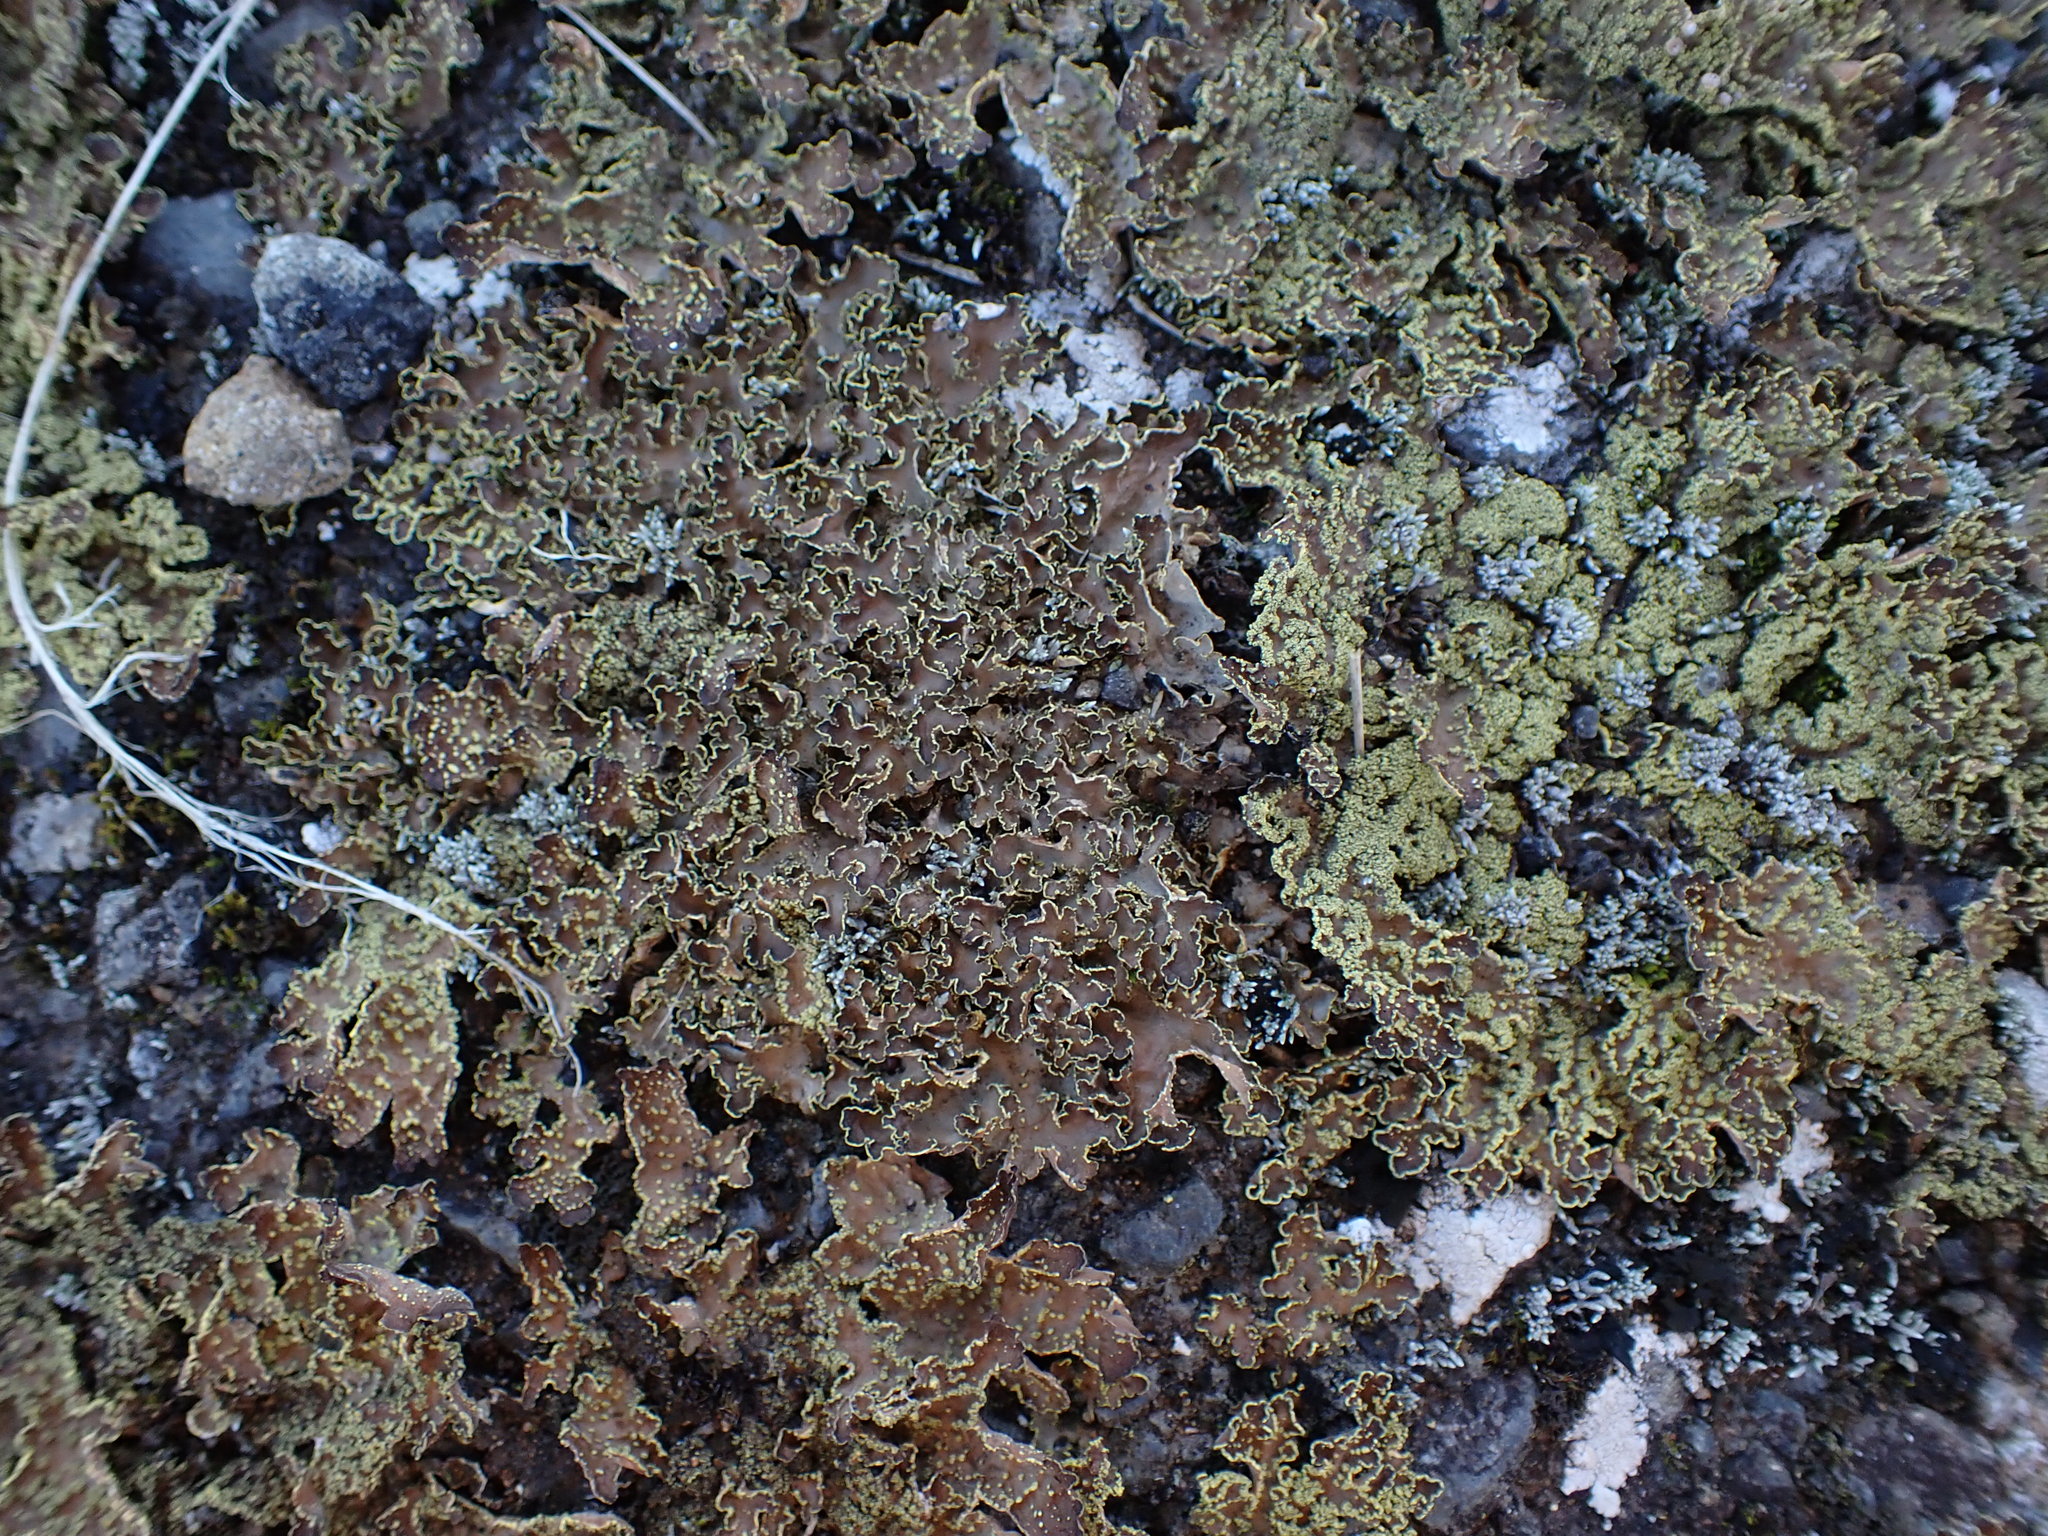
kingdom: Fungi
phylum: Ascomycota
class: Lecanoromycetes
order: Peltigerales
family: Lobariaceae
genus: Pseudocyphellaria
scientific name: Pseudocyphellaria crocata
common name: Golden specklebelly
